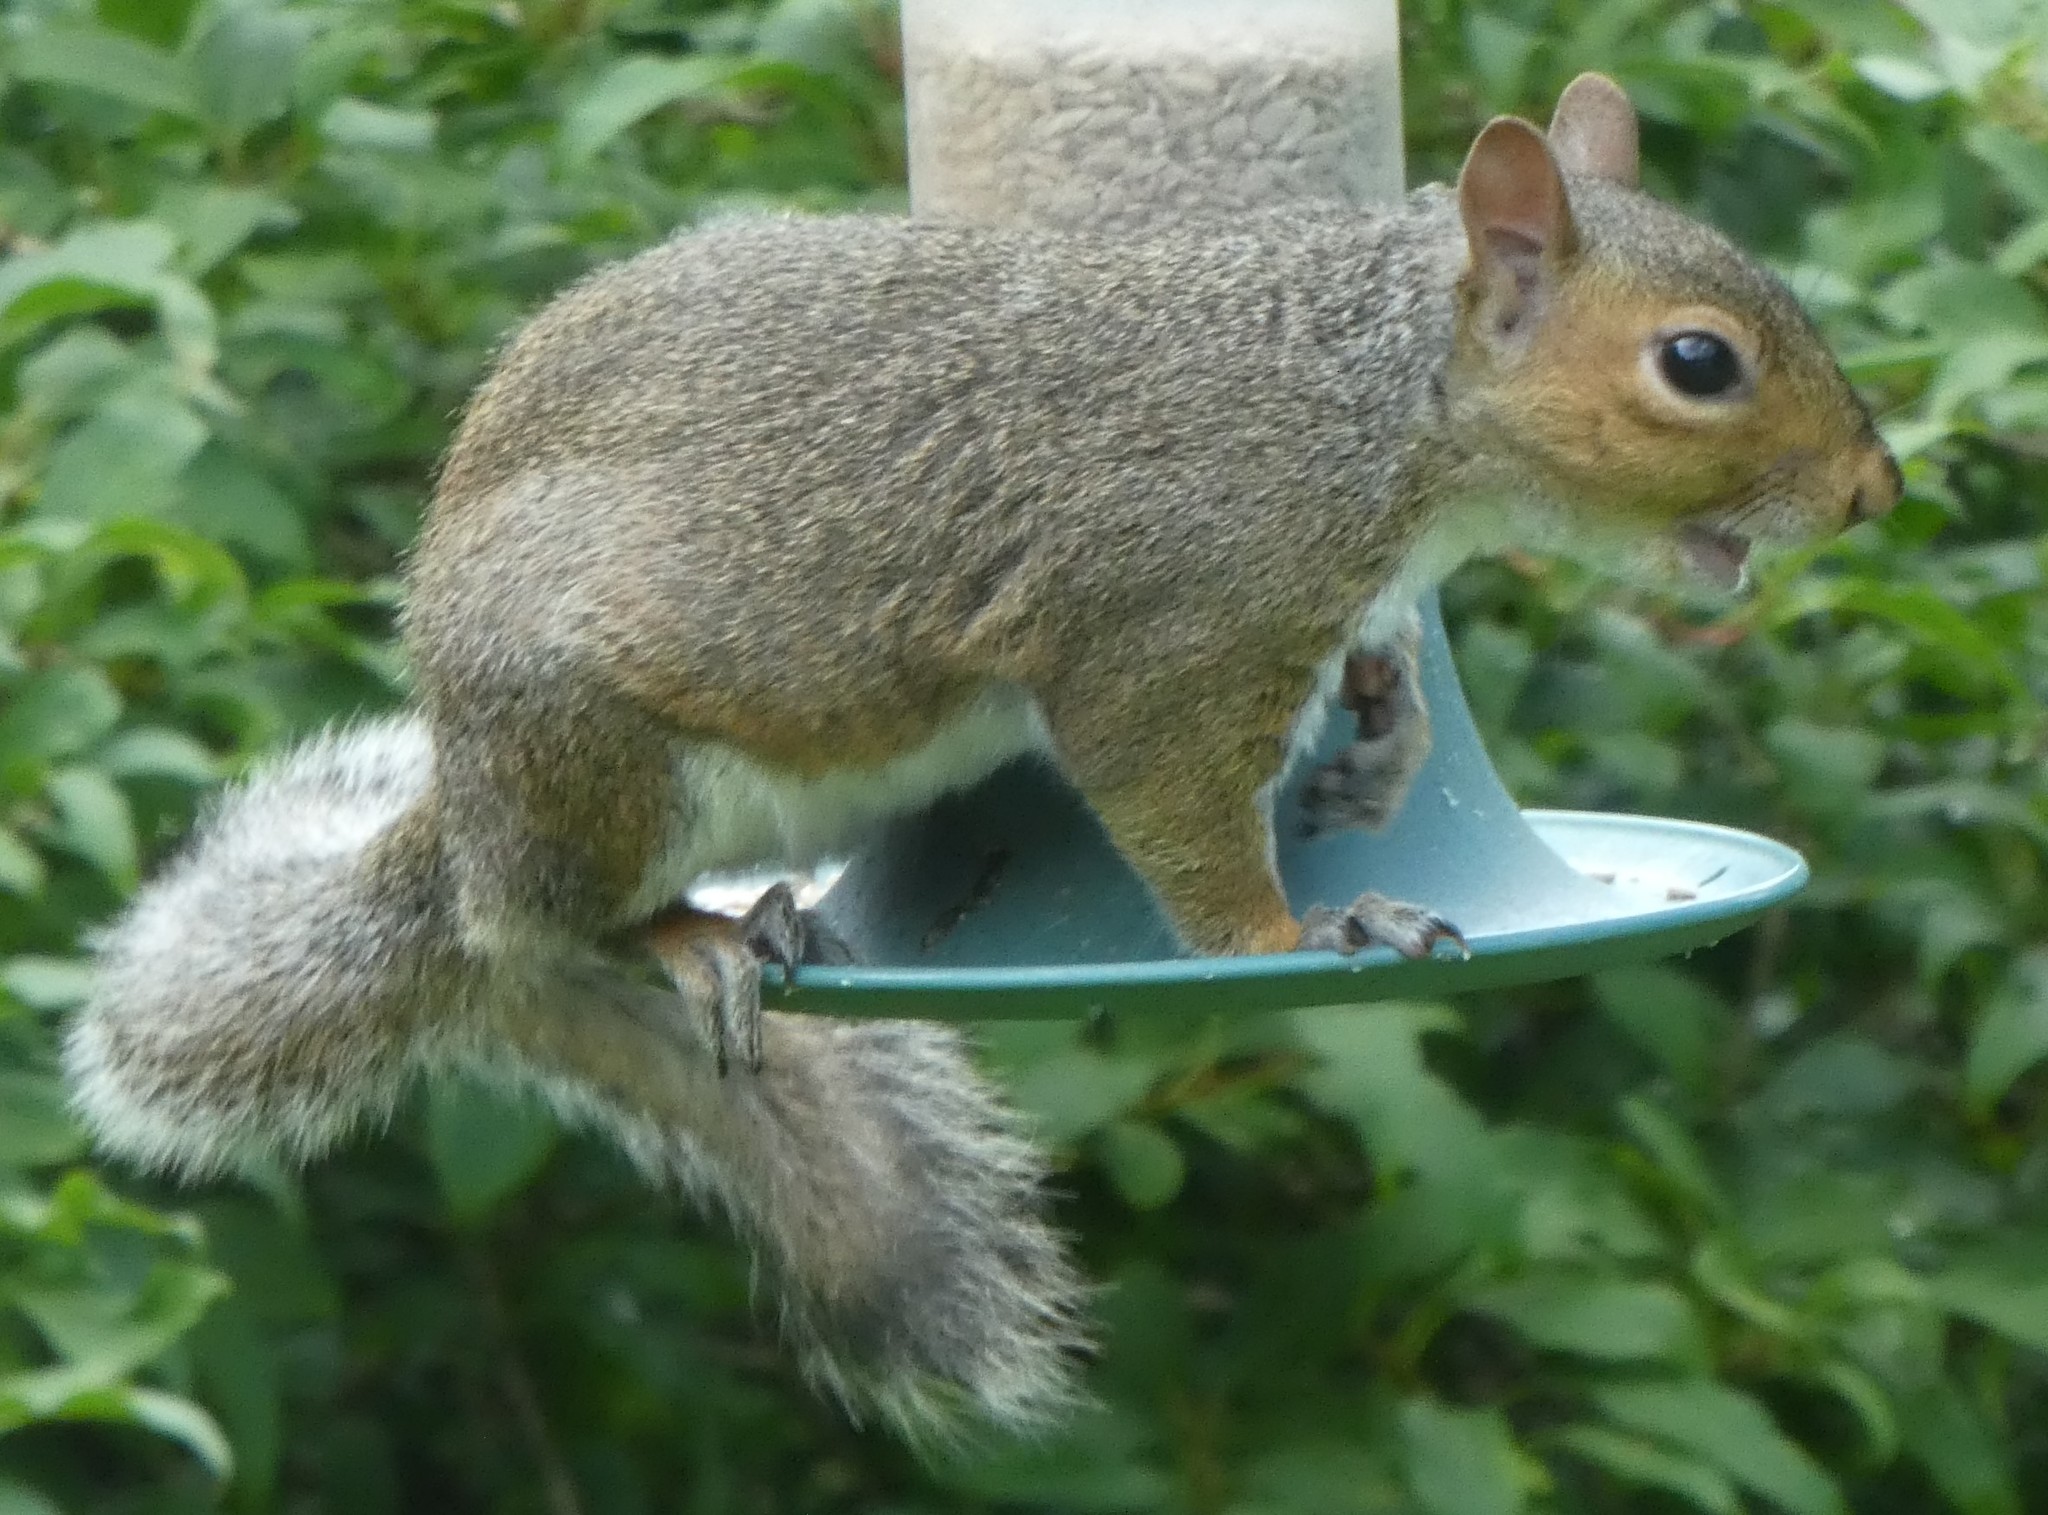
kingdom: Animalia
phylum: Chordata
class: Mammalia
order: Rodentia
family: Sciuridae
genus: Sciurus
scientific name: Sciurus carolinensis
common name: Eastern gray squirrel
